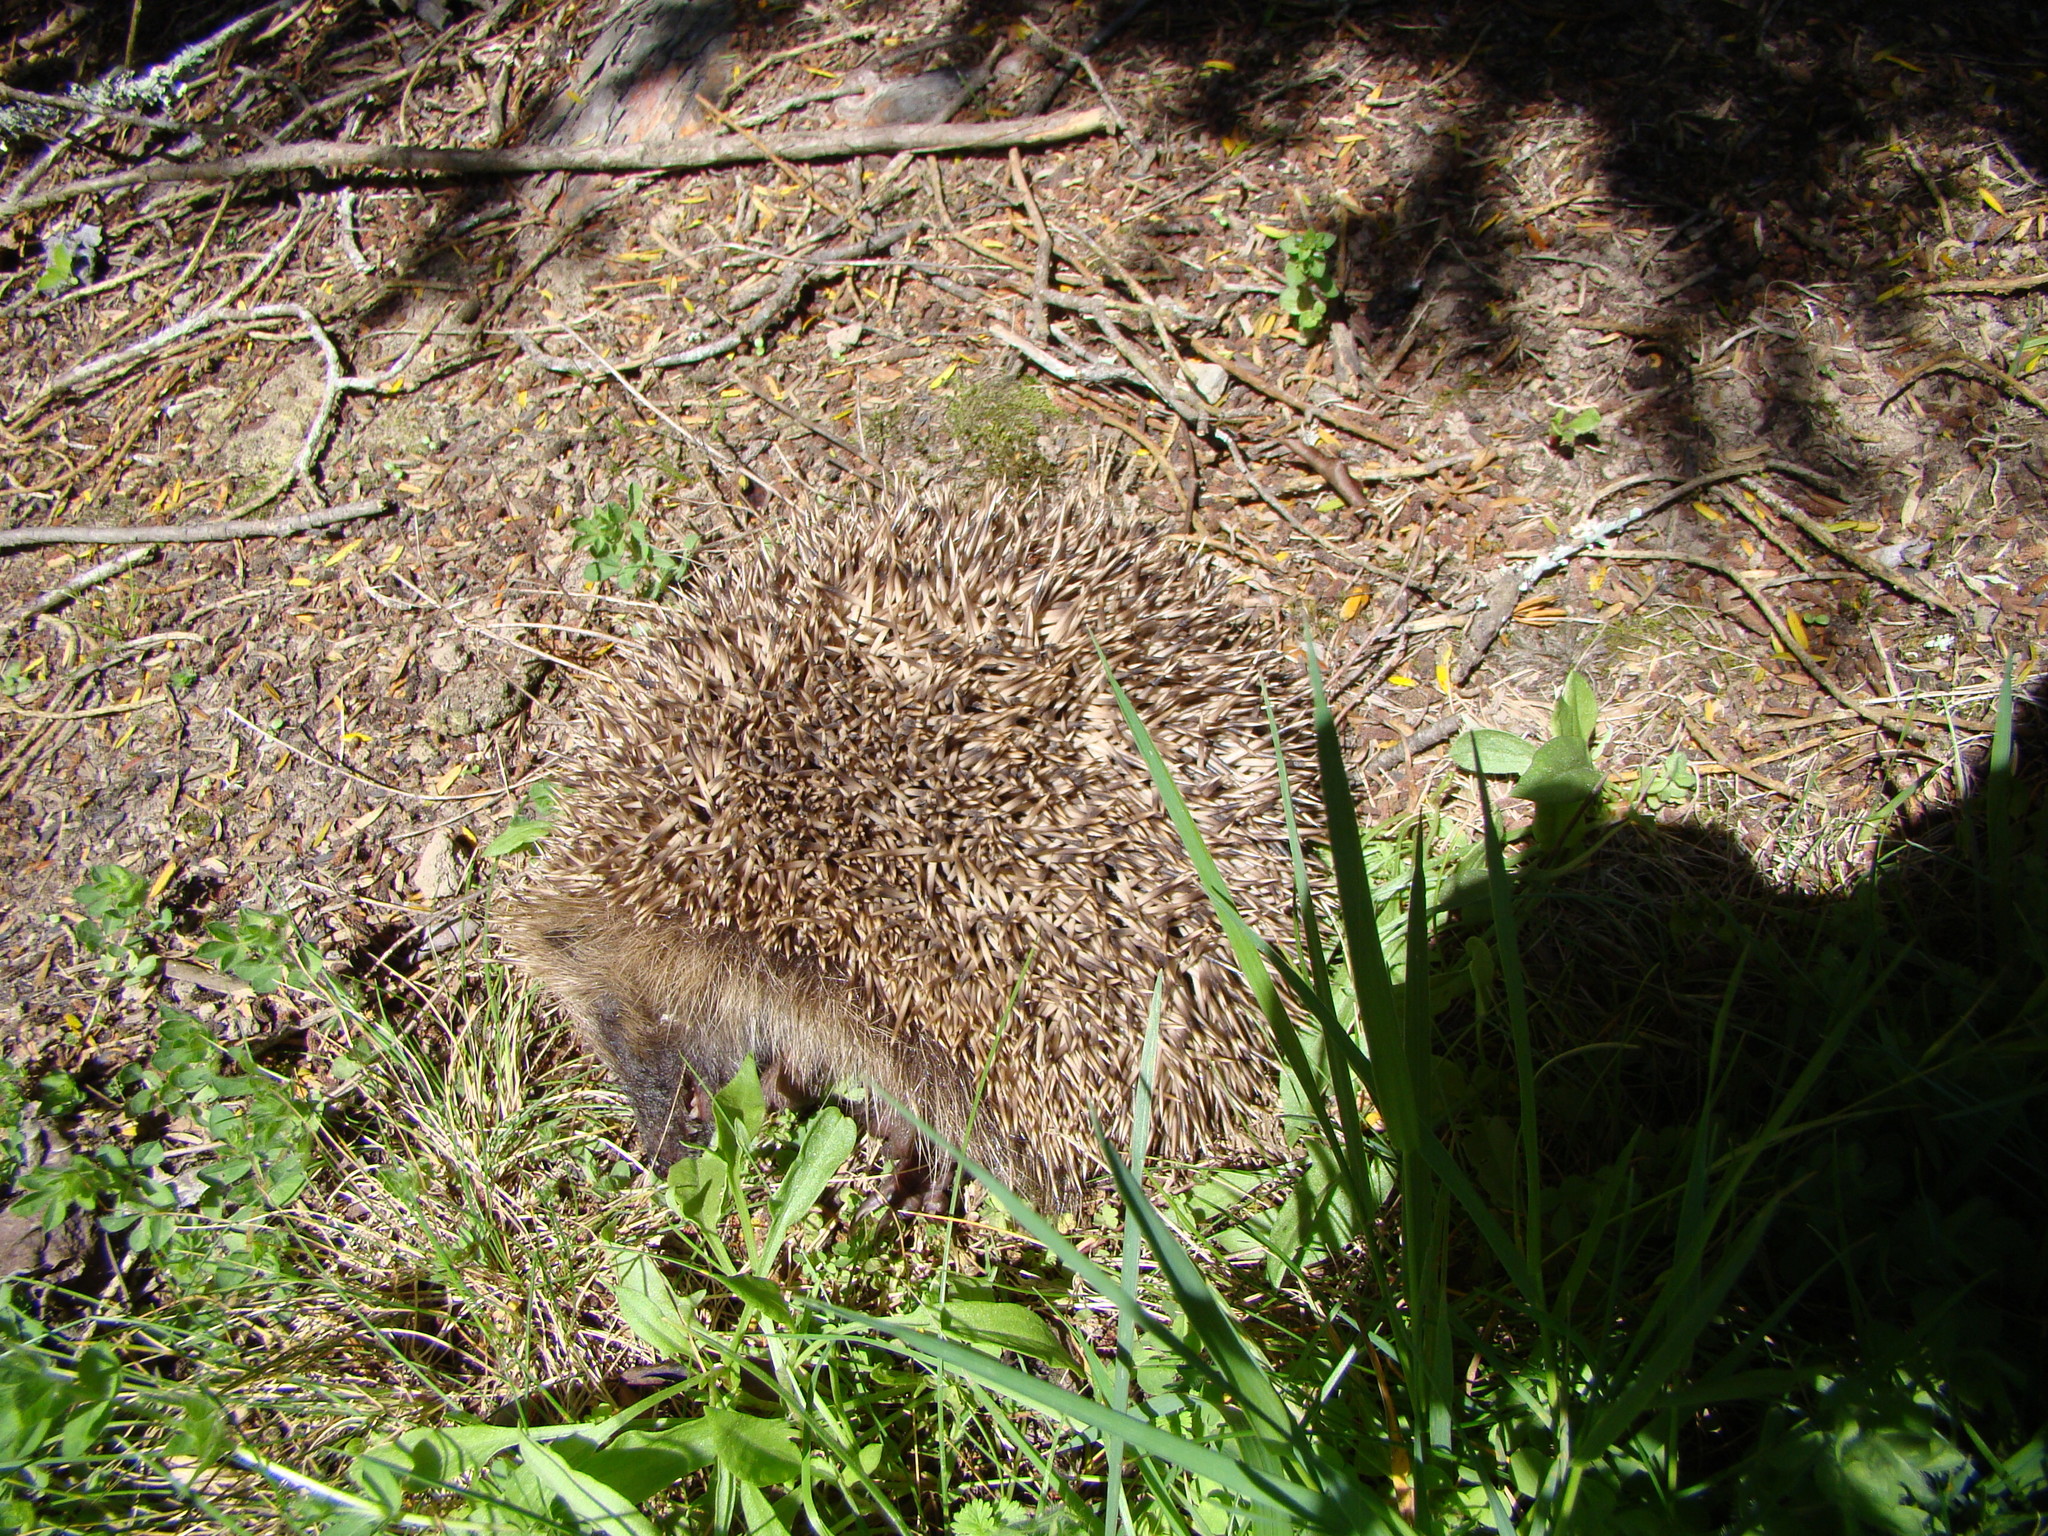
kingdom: Animalia
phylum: Chordata
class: Mammalia
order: Erinaceomorpha
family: Erinaceidae
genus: Erinaceus
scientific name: Erinaceus europaeus
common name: West european hedgehog
